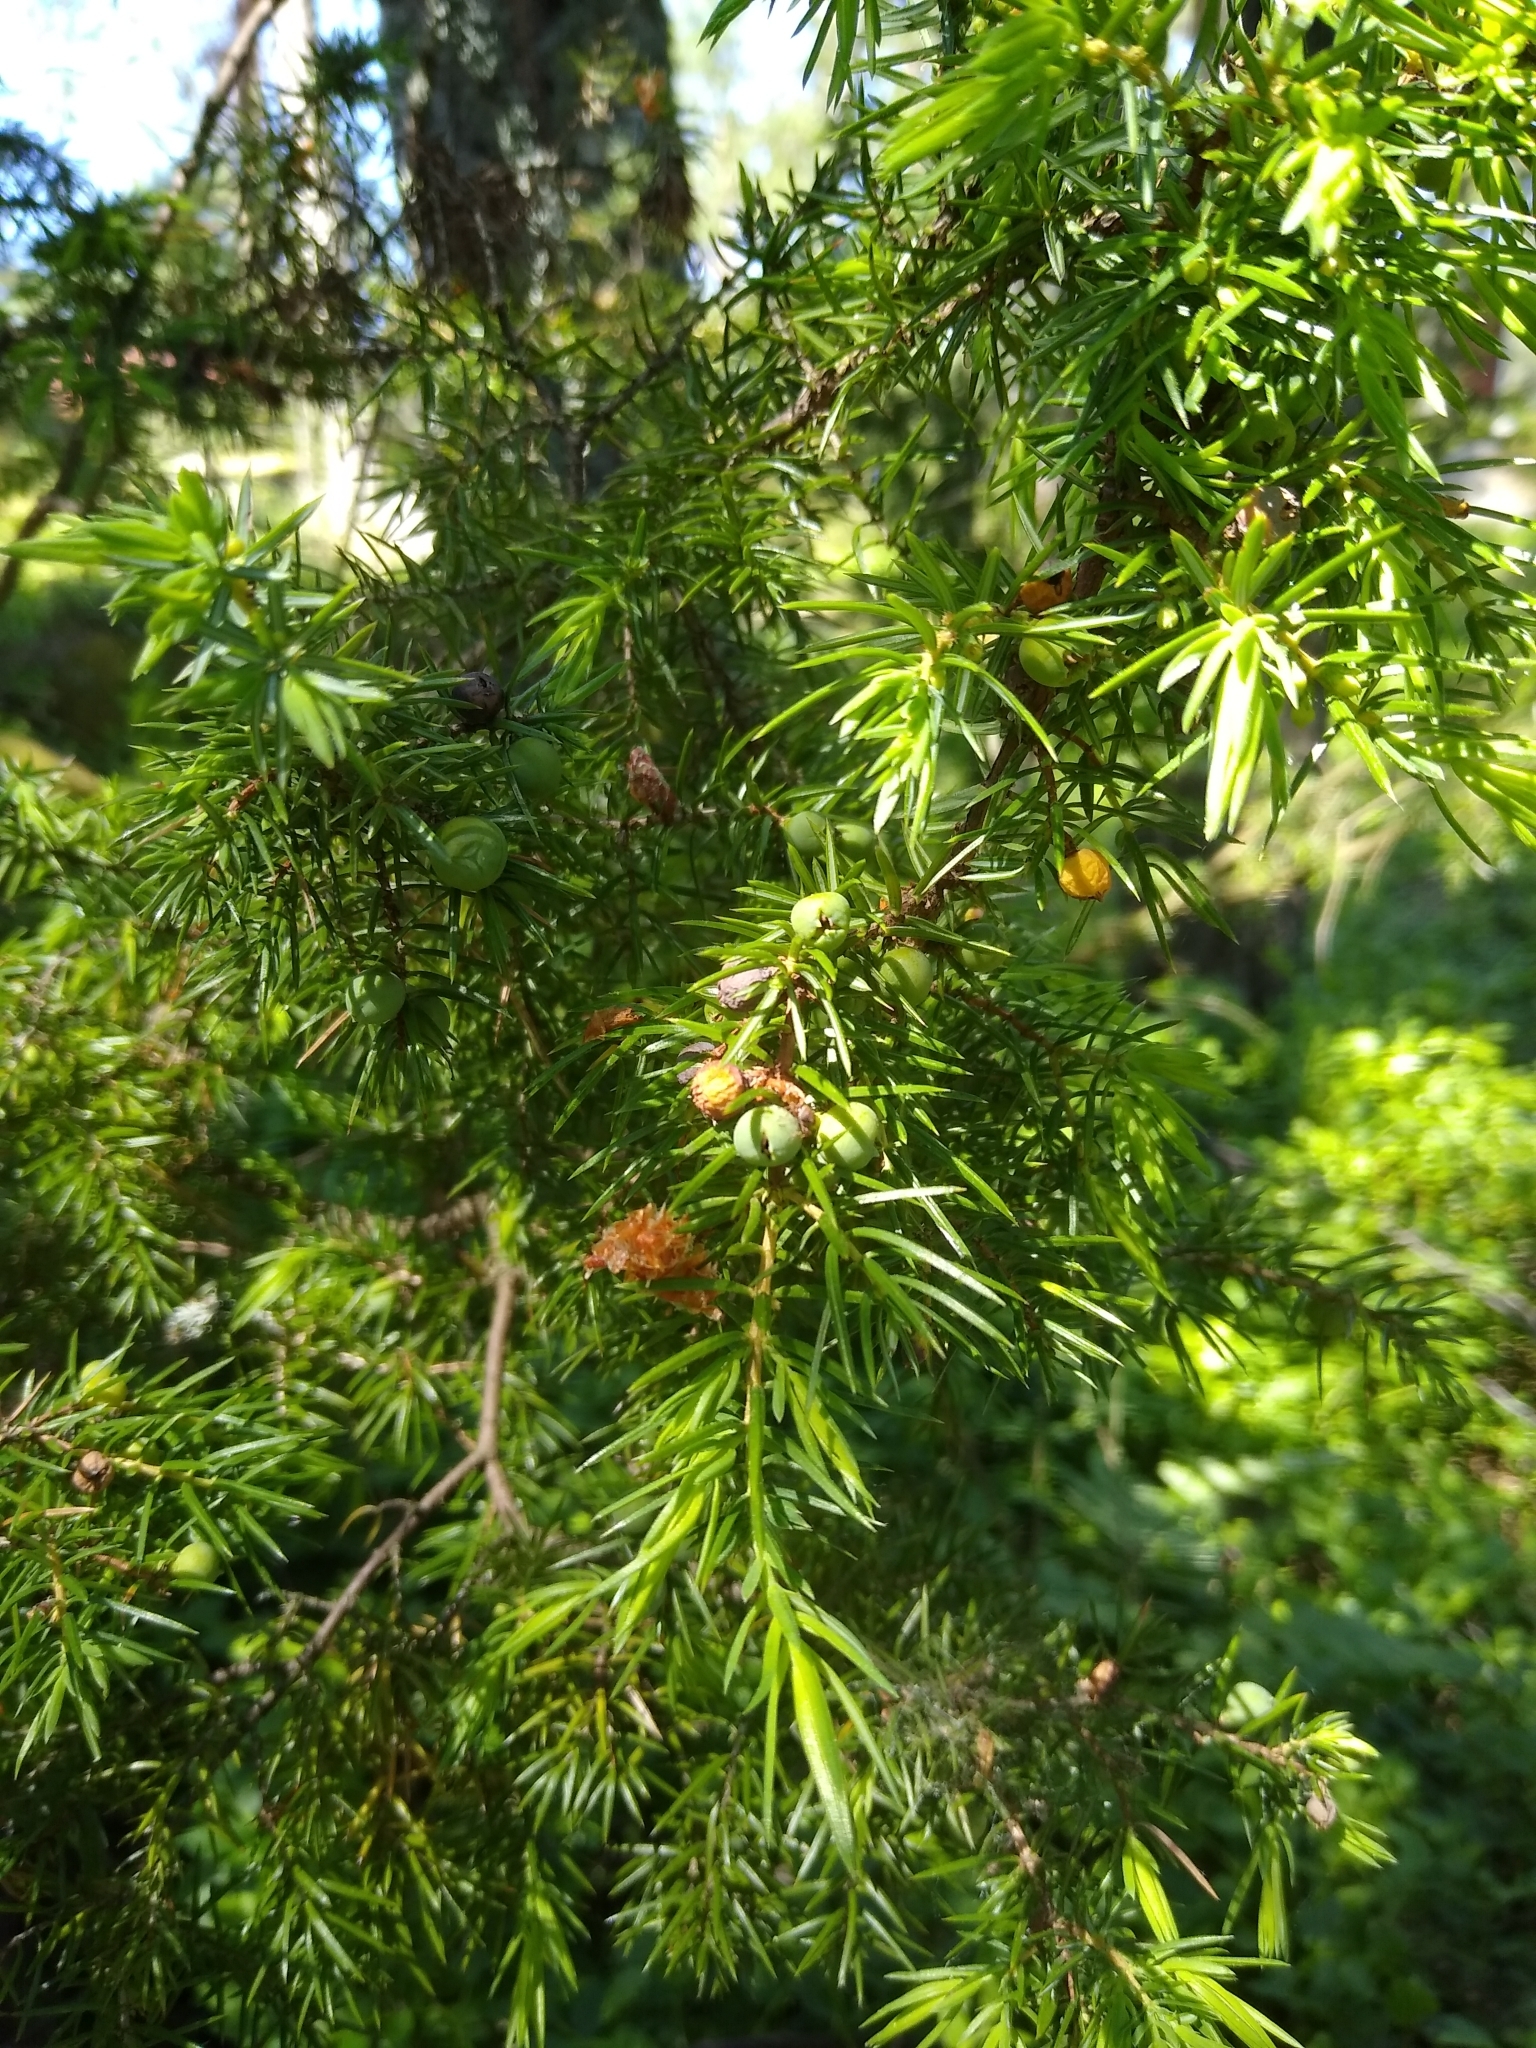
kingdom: Plantae
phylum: Tracheophyta
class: Pinopsida
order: Pinales
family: Cupressaceae
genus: Juniperus
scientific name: Juniperus communis
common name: Common juniper
